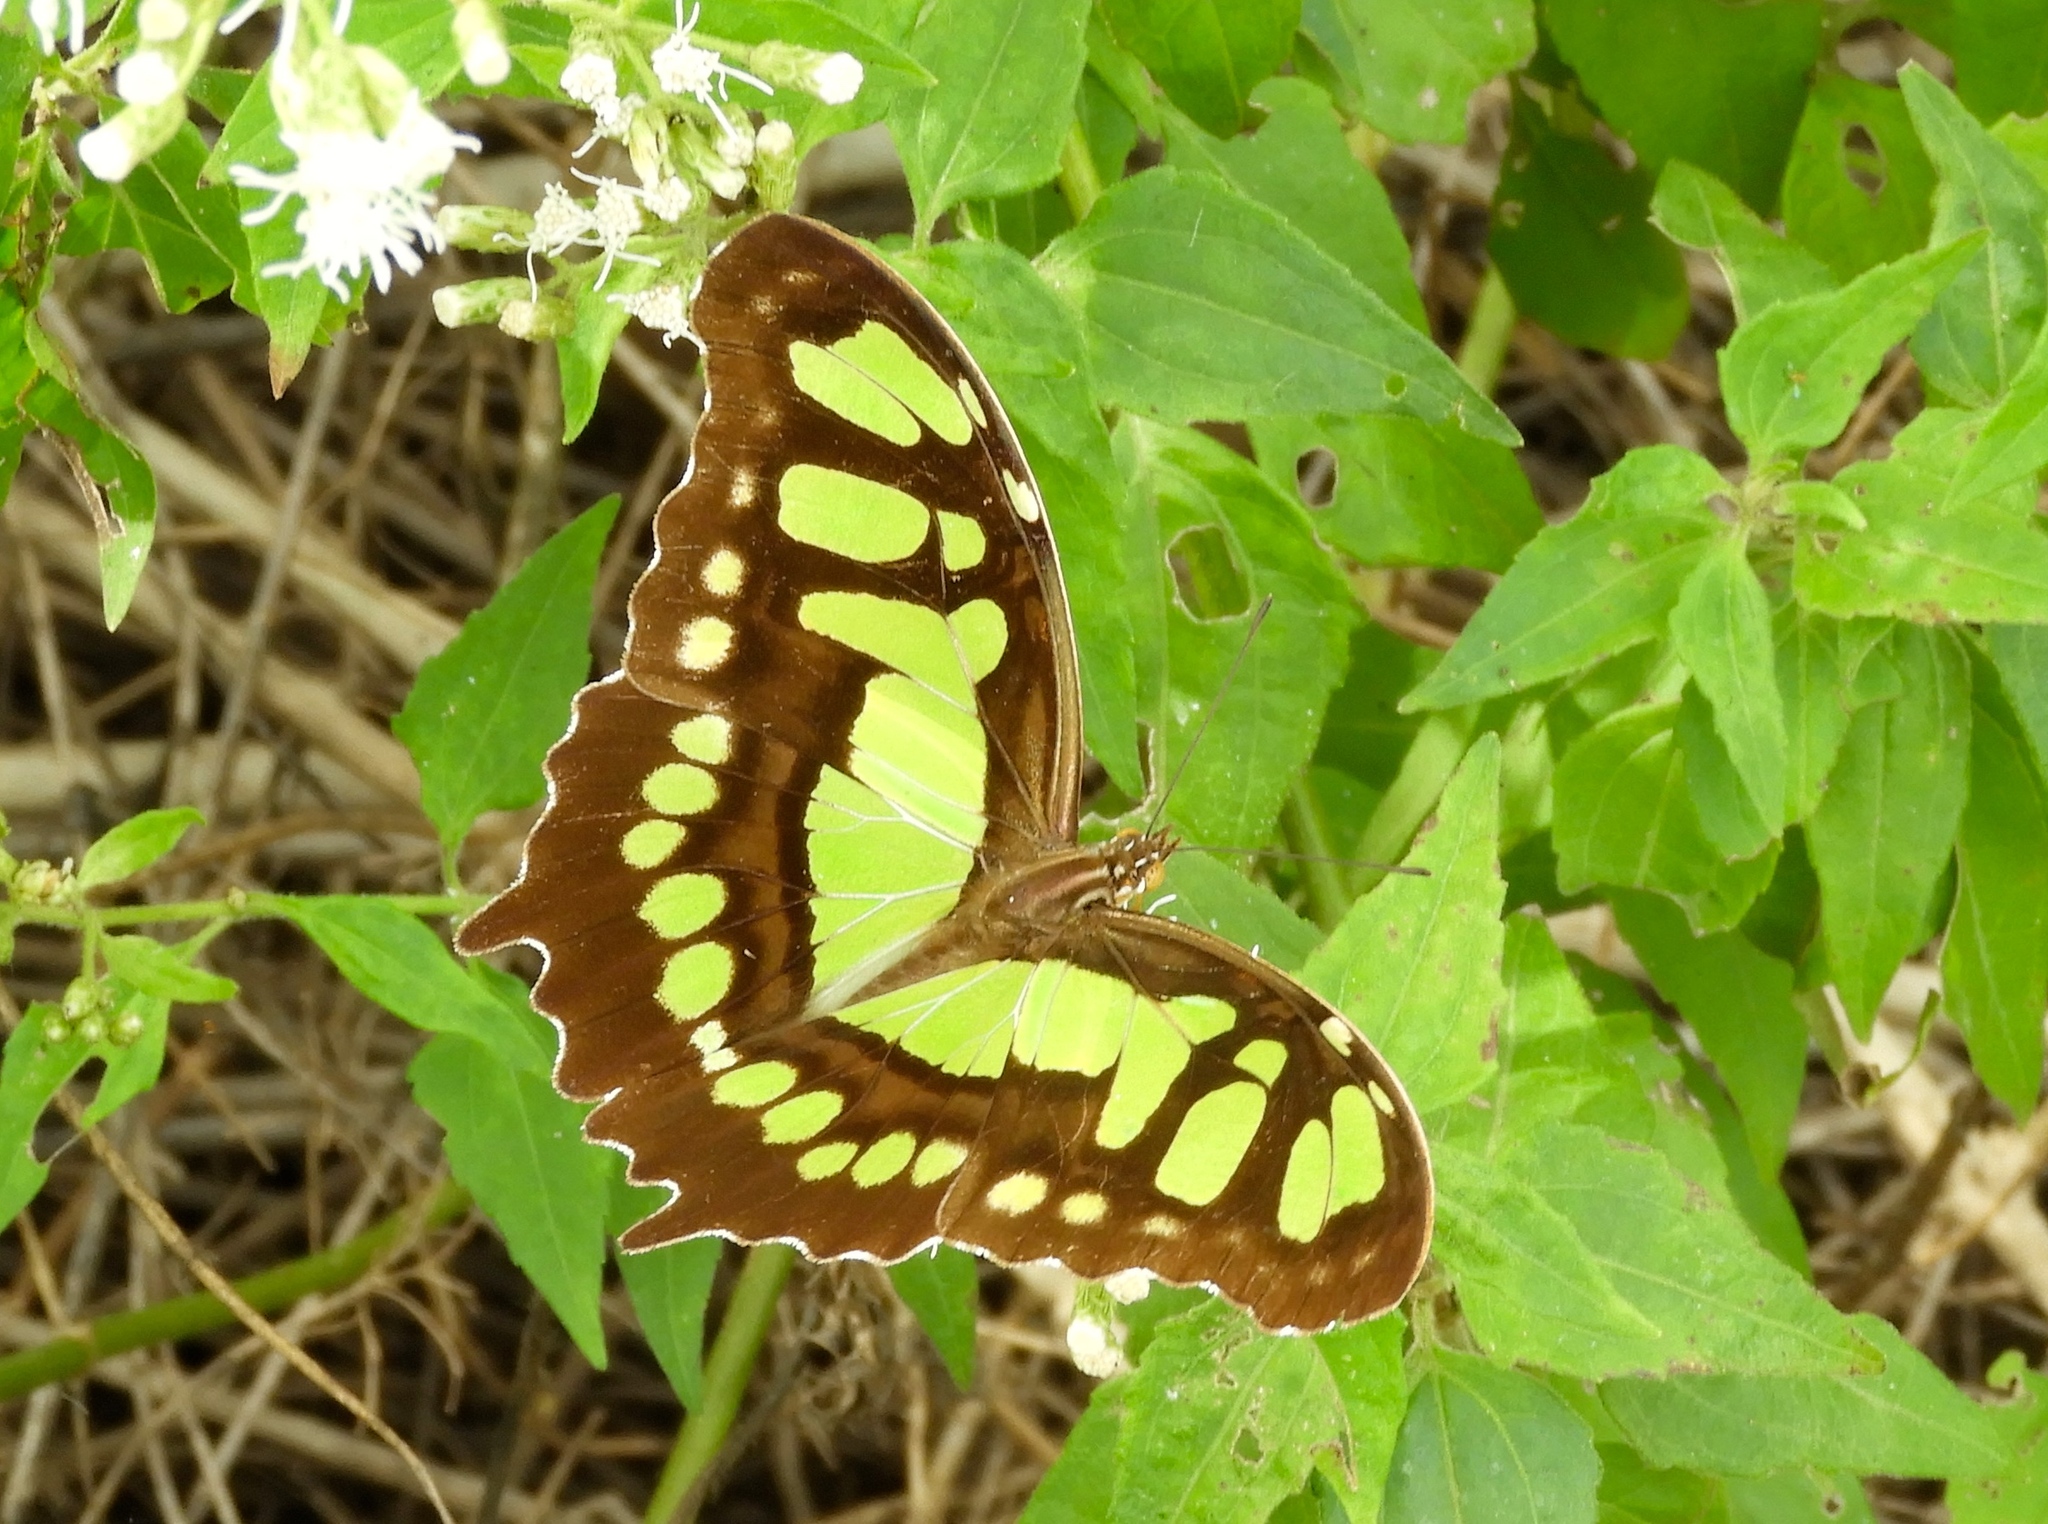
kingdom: Animalia
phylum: Arthropoda
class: Insecta
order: Lepidoptera
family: Nymphalidae
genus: Siproeta
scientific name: Siproeta stelenes
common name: Malachite
